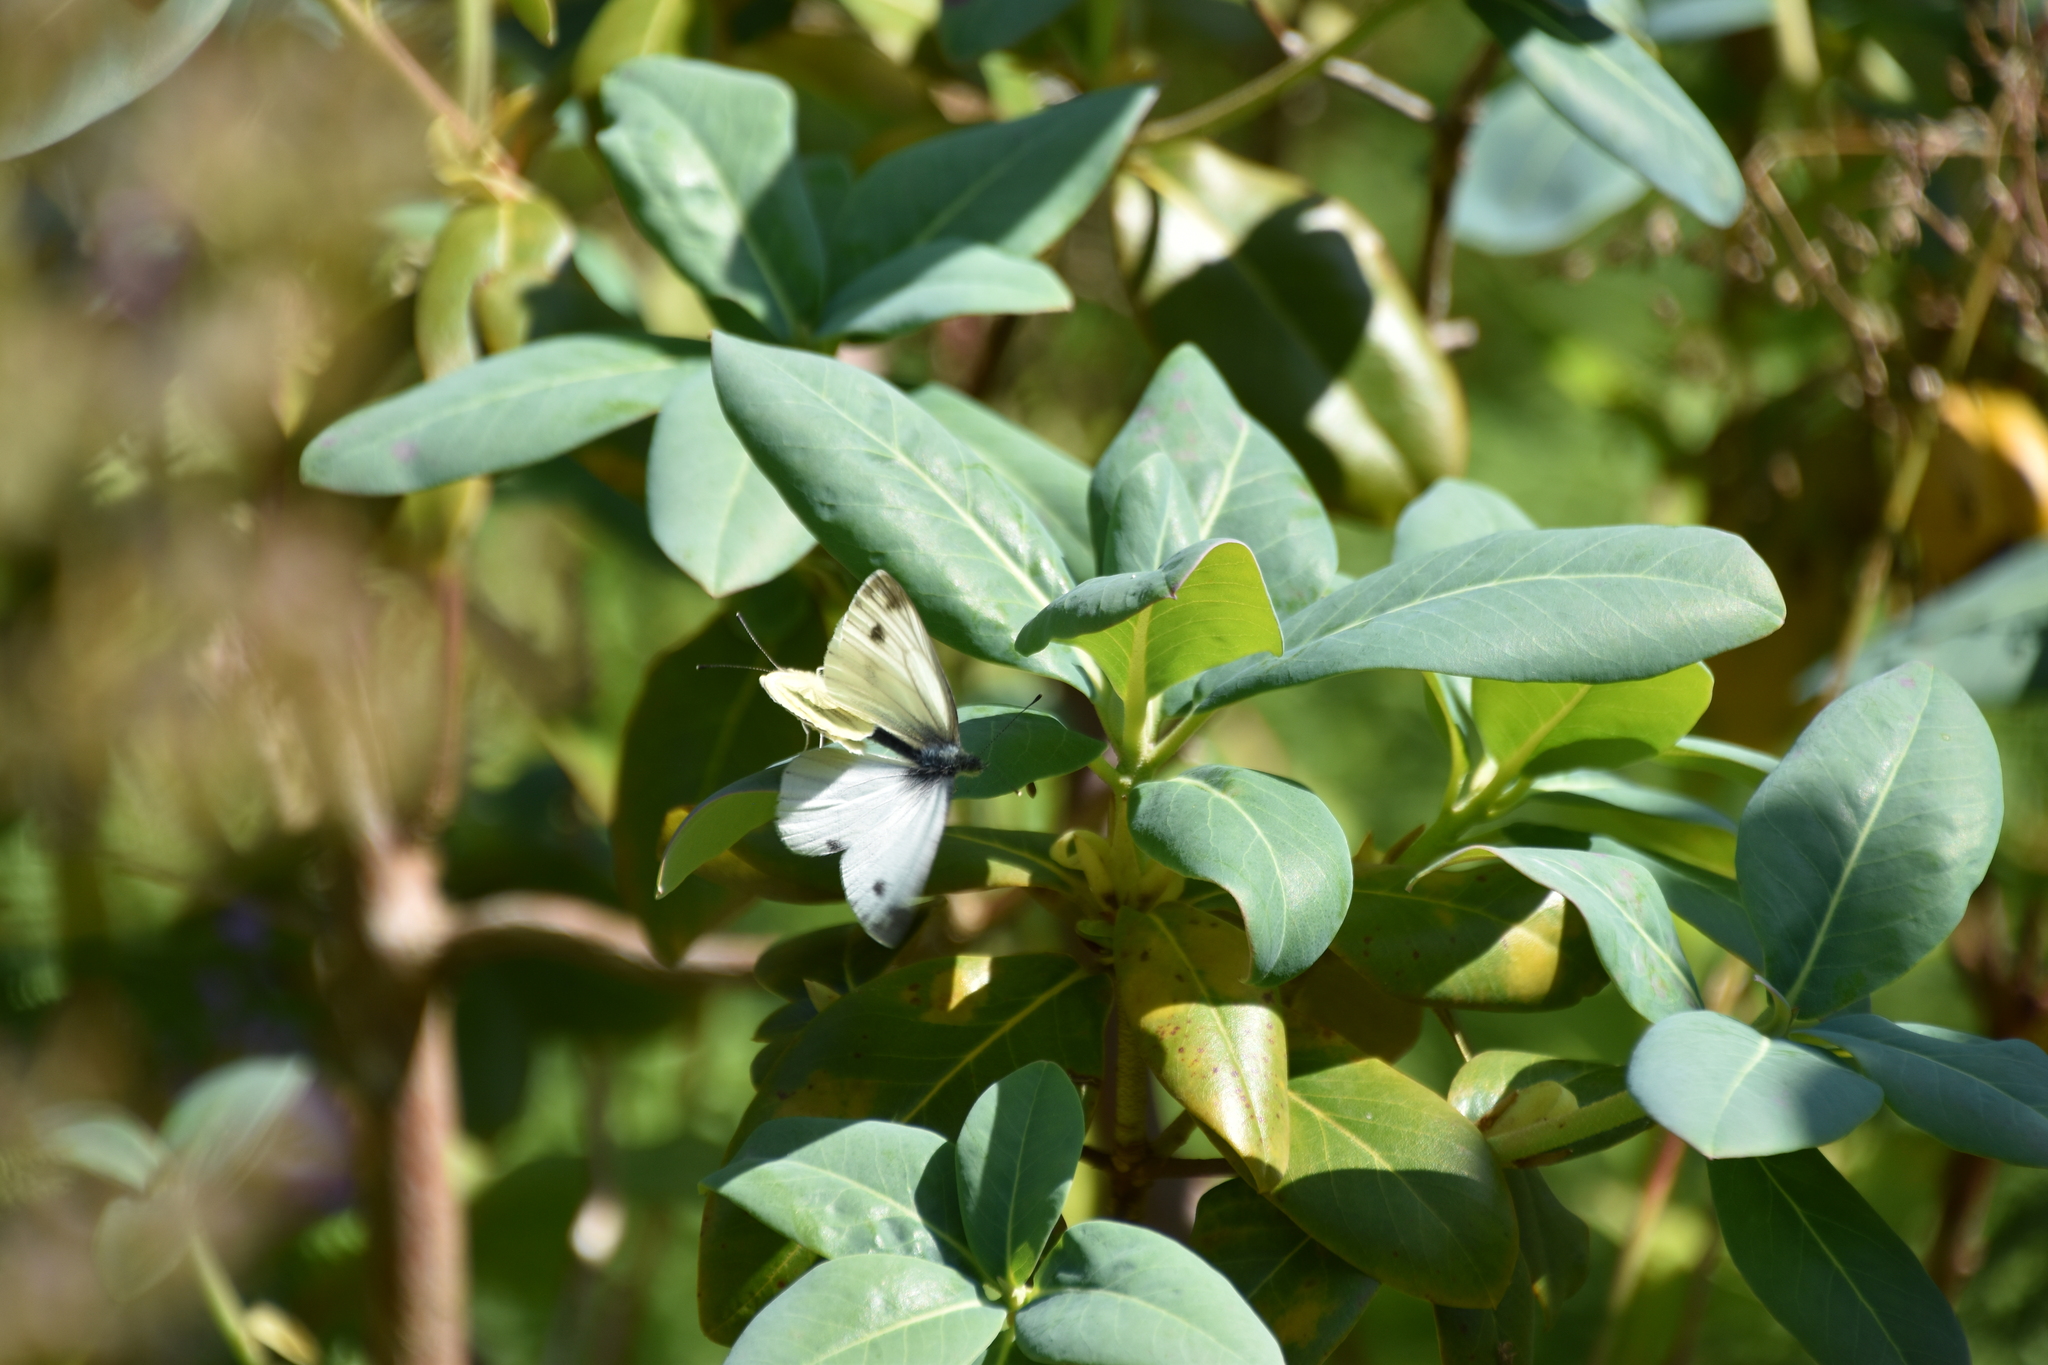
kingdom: Animalia
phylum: Arthropoda
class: Insecta
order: Lepidoptera
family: Pieridae
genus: Pieris
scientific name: Pieris napi
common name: Green-veined white
